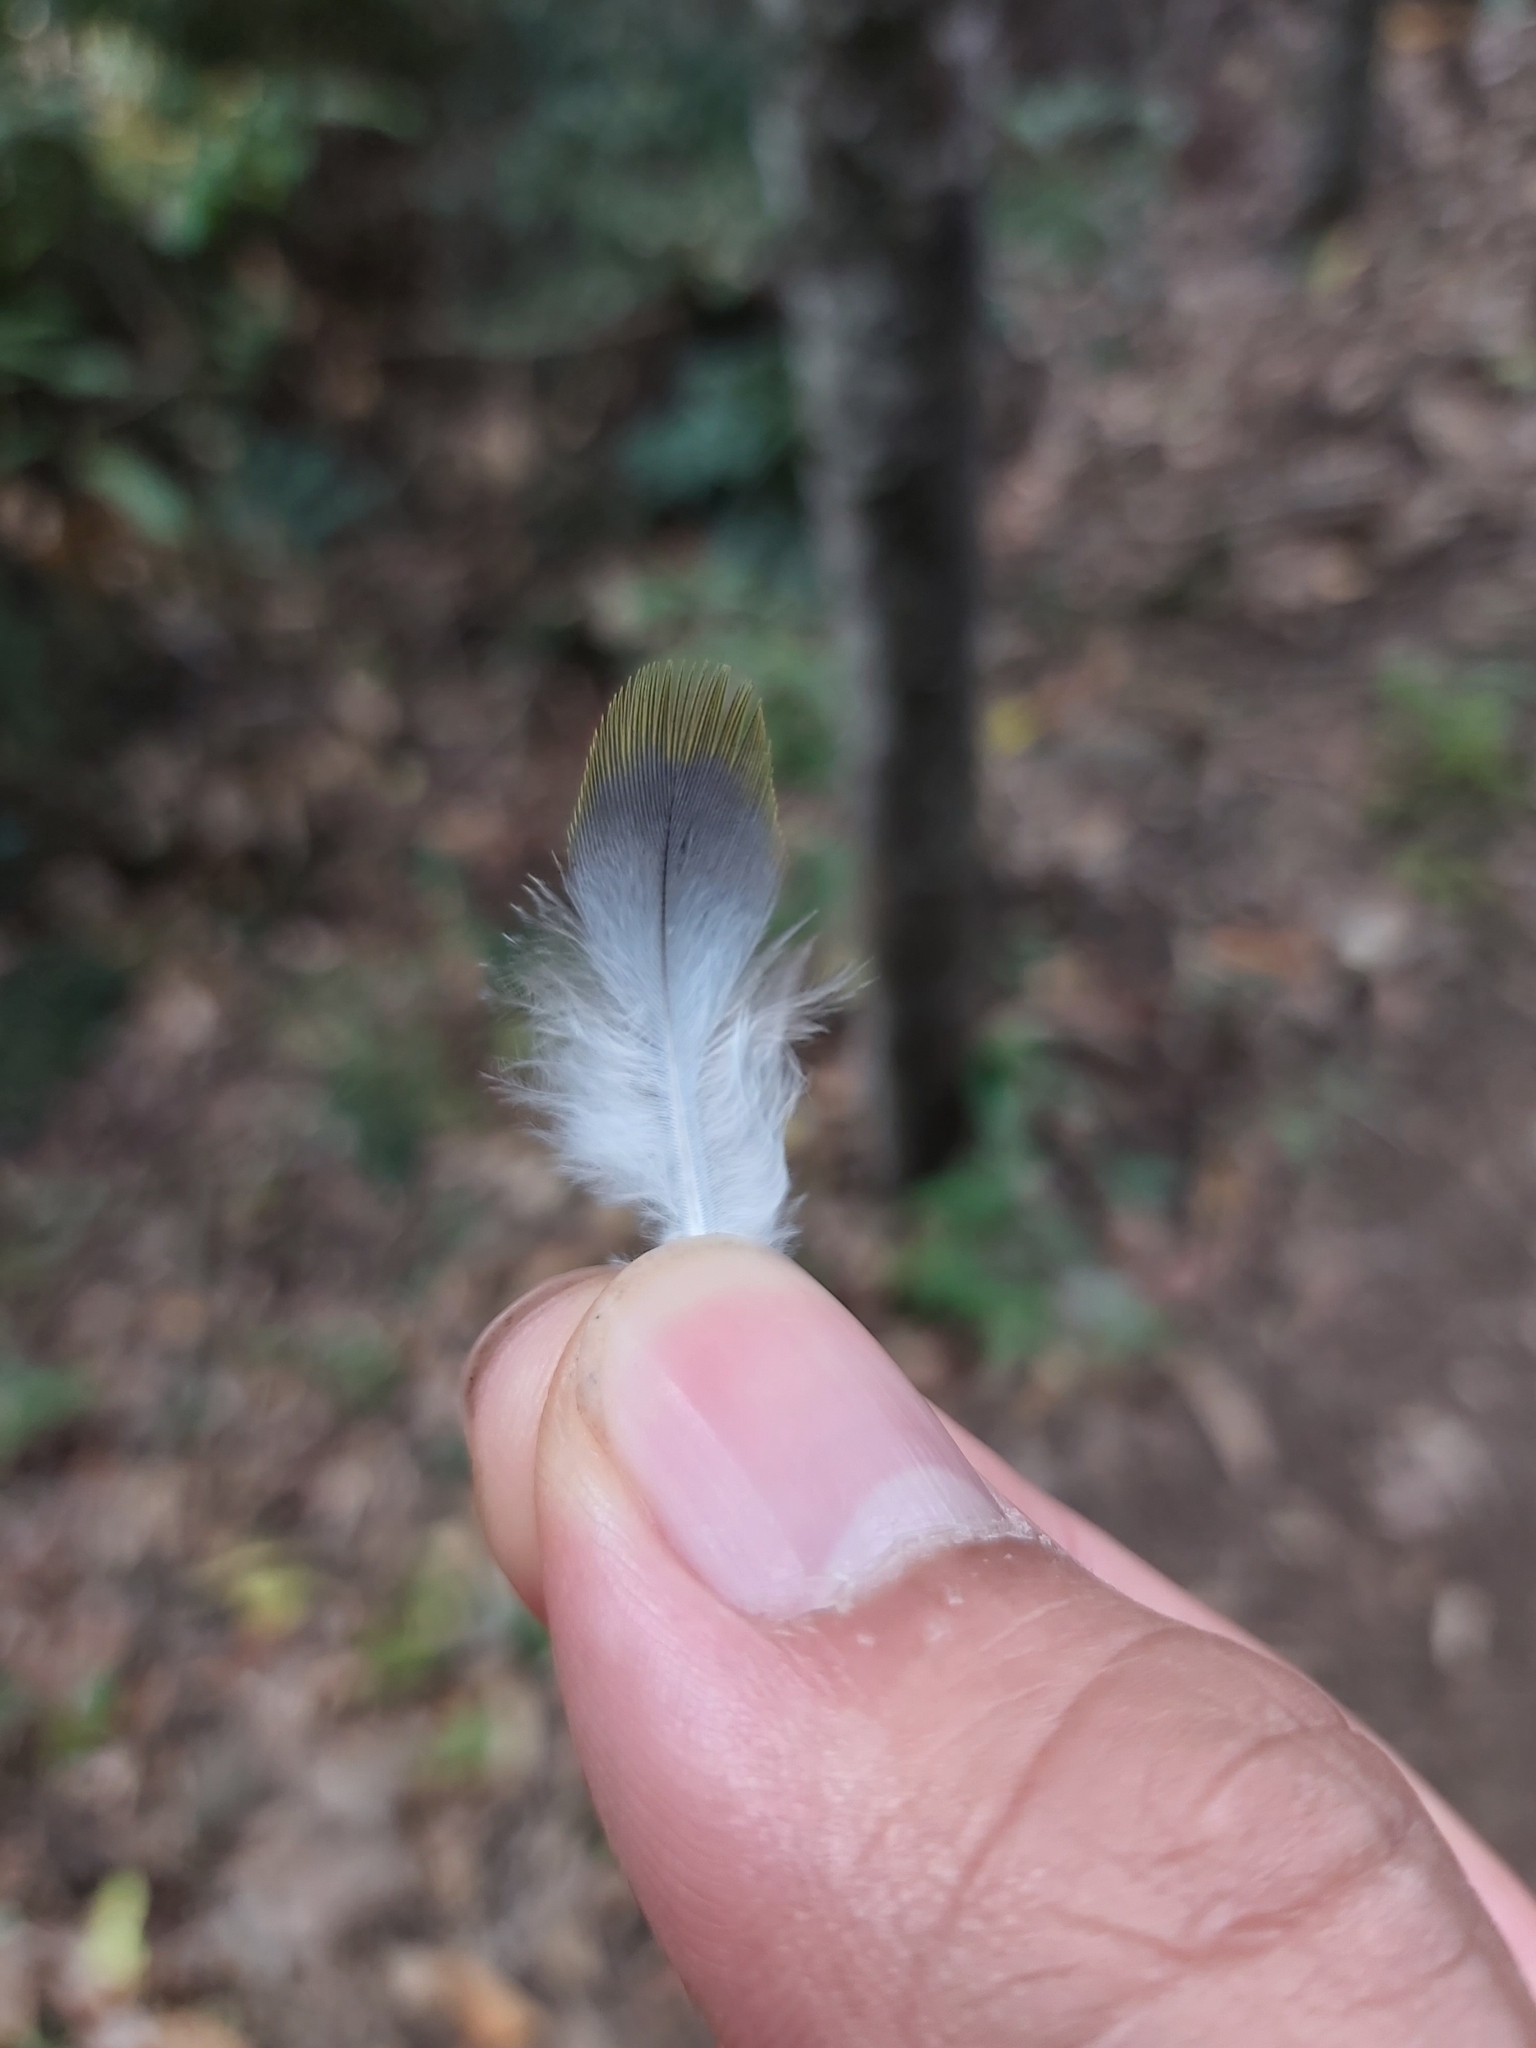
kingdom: Animalia
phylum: Chordata
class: Aves
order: Columbiformes
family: Columbidae
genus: Ptilinopus
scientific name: Ptilinopus regina
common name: Rose-crowned fruit dove
